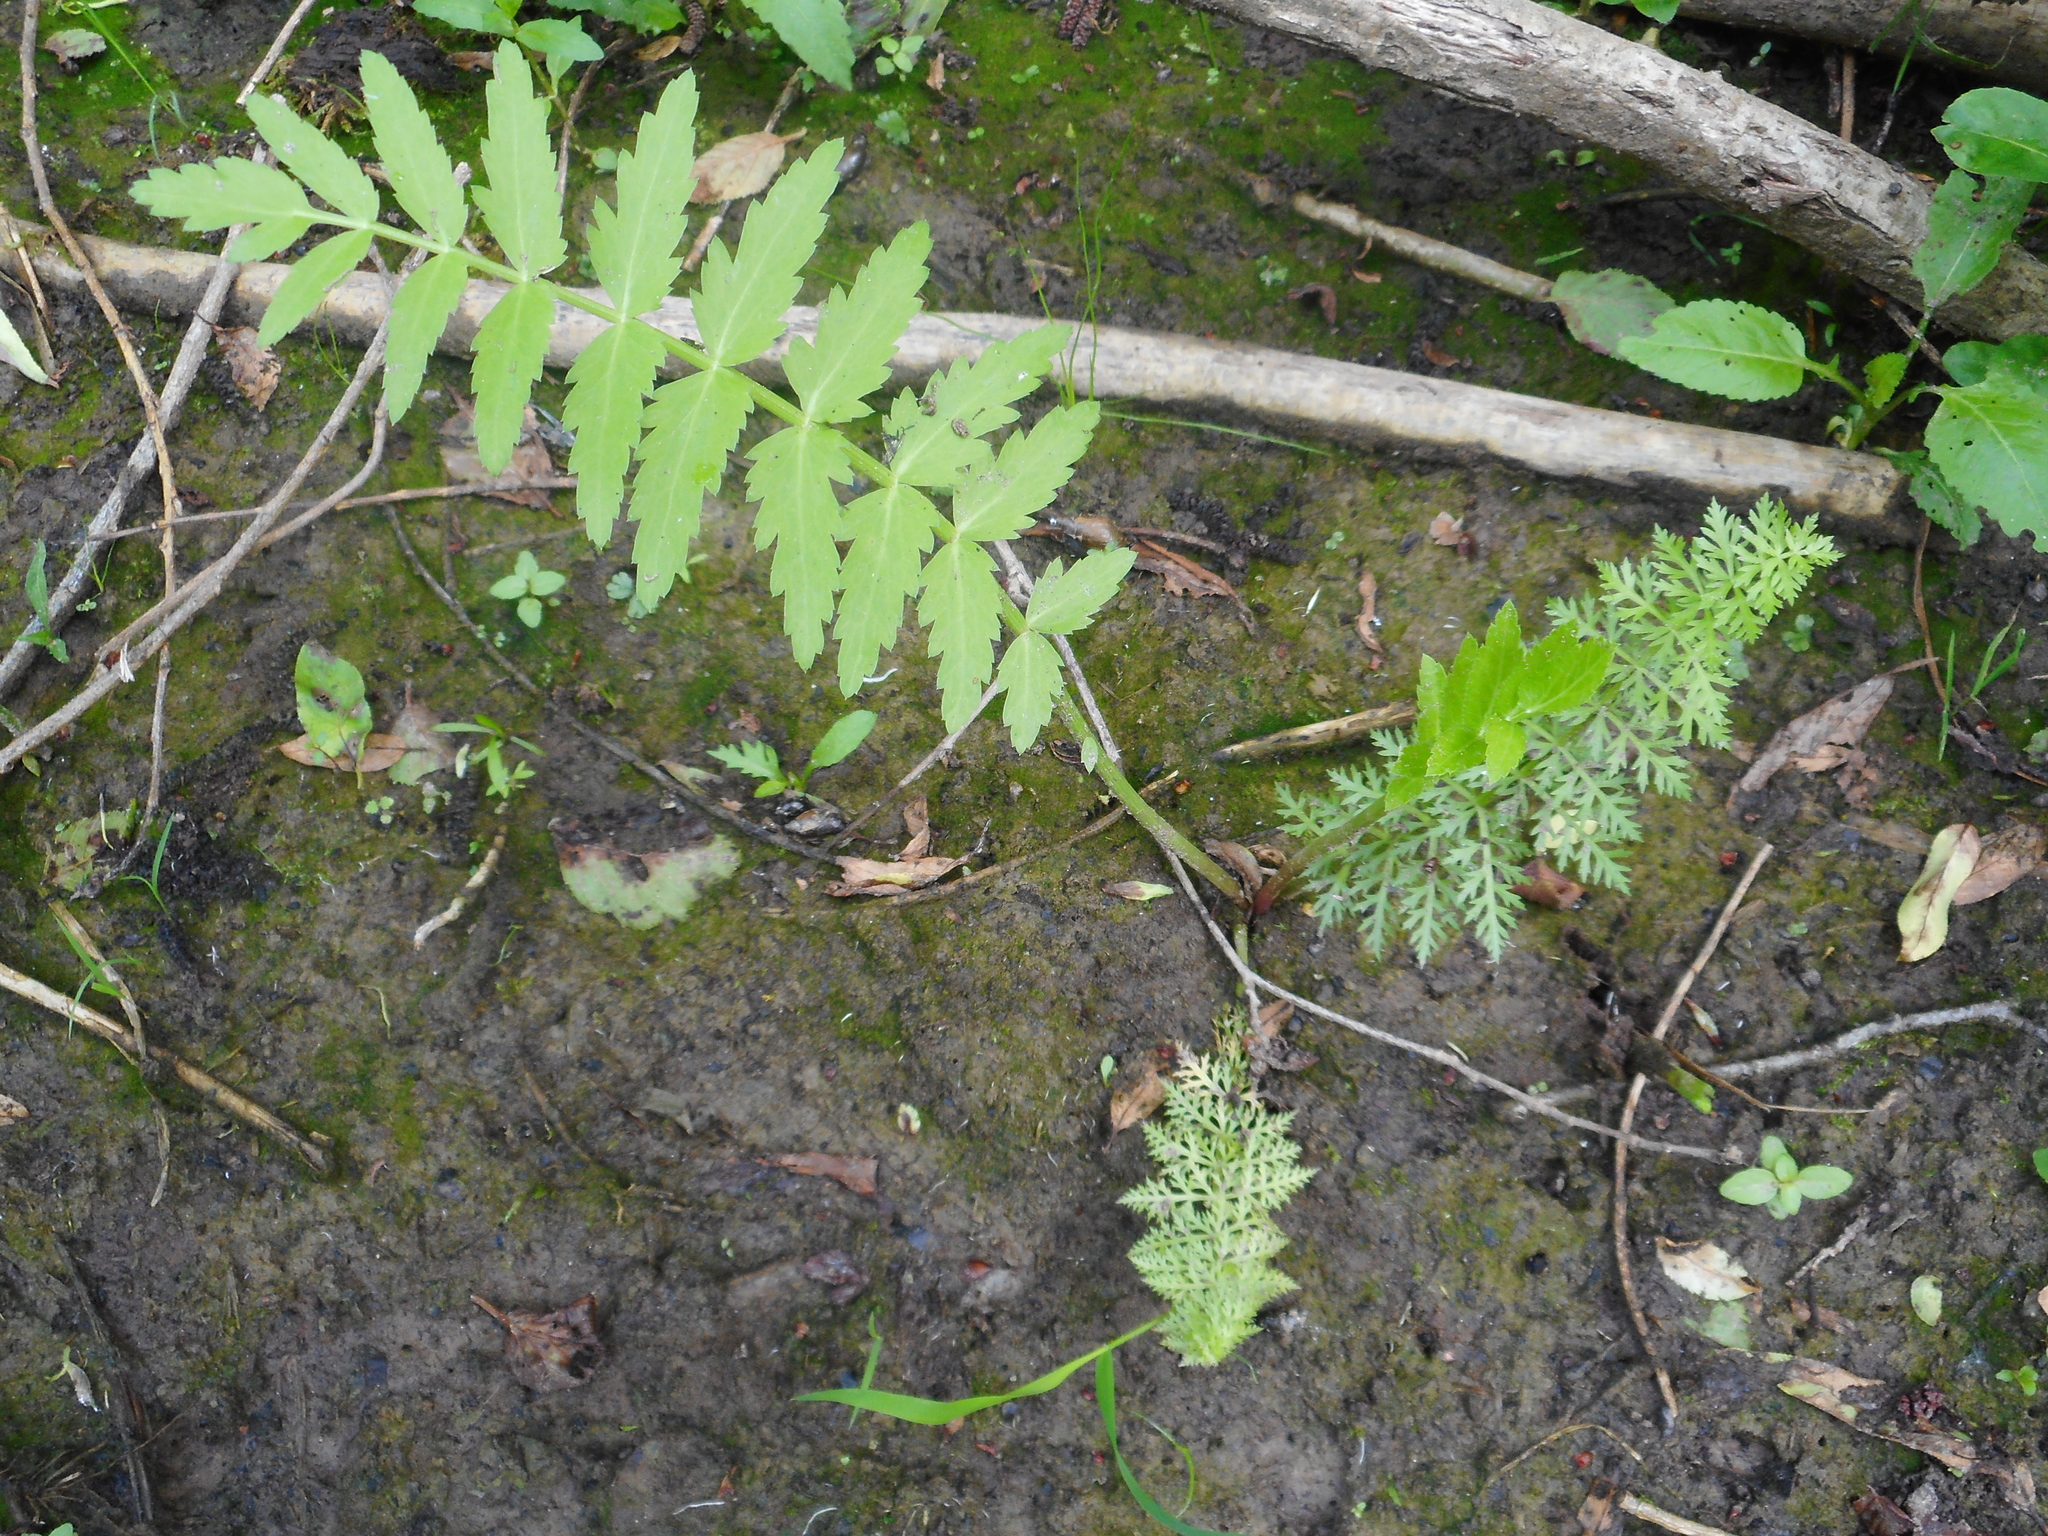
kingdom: Plantae
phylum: Tracheophyta
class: Magnoliopsida
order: Apiales
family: Apiaceae
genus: Sium
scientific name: Sium latifolium
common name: Greater water-parsnip
